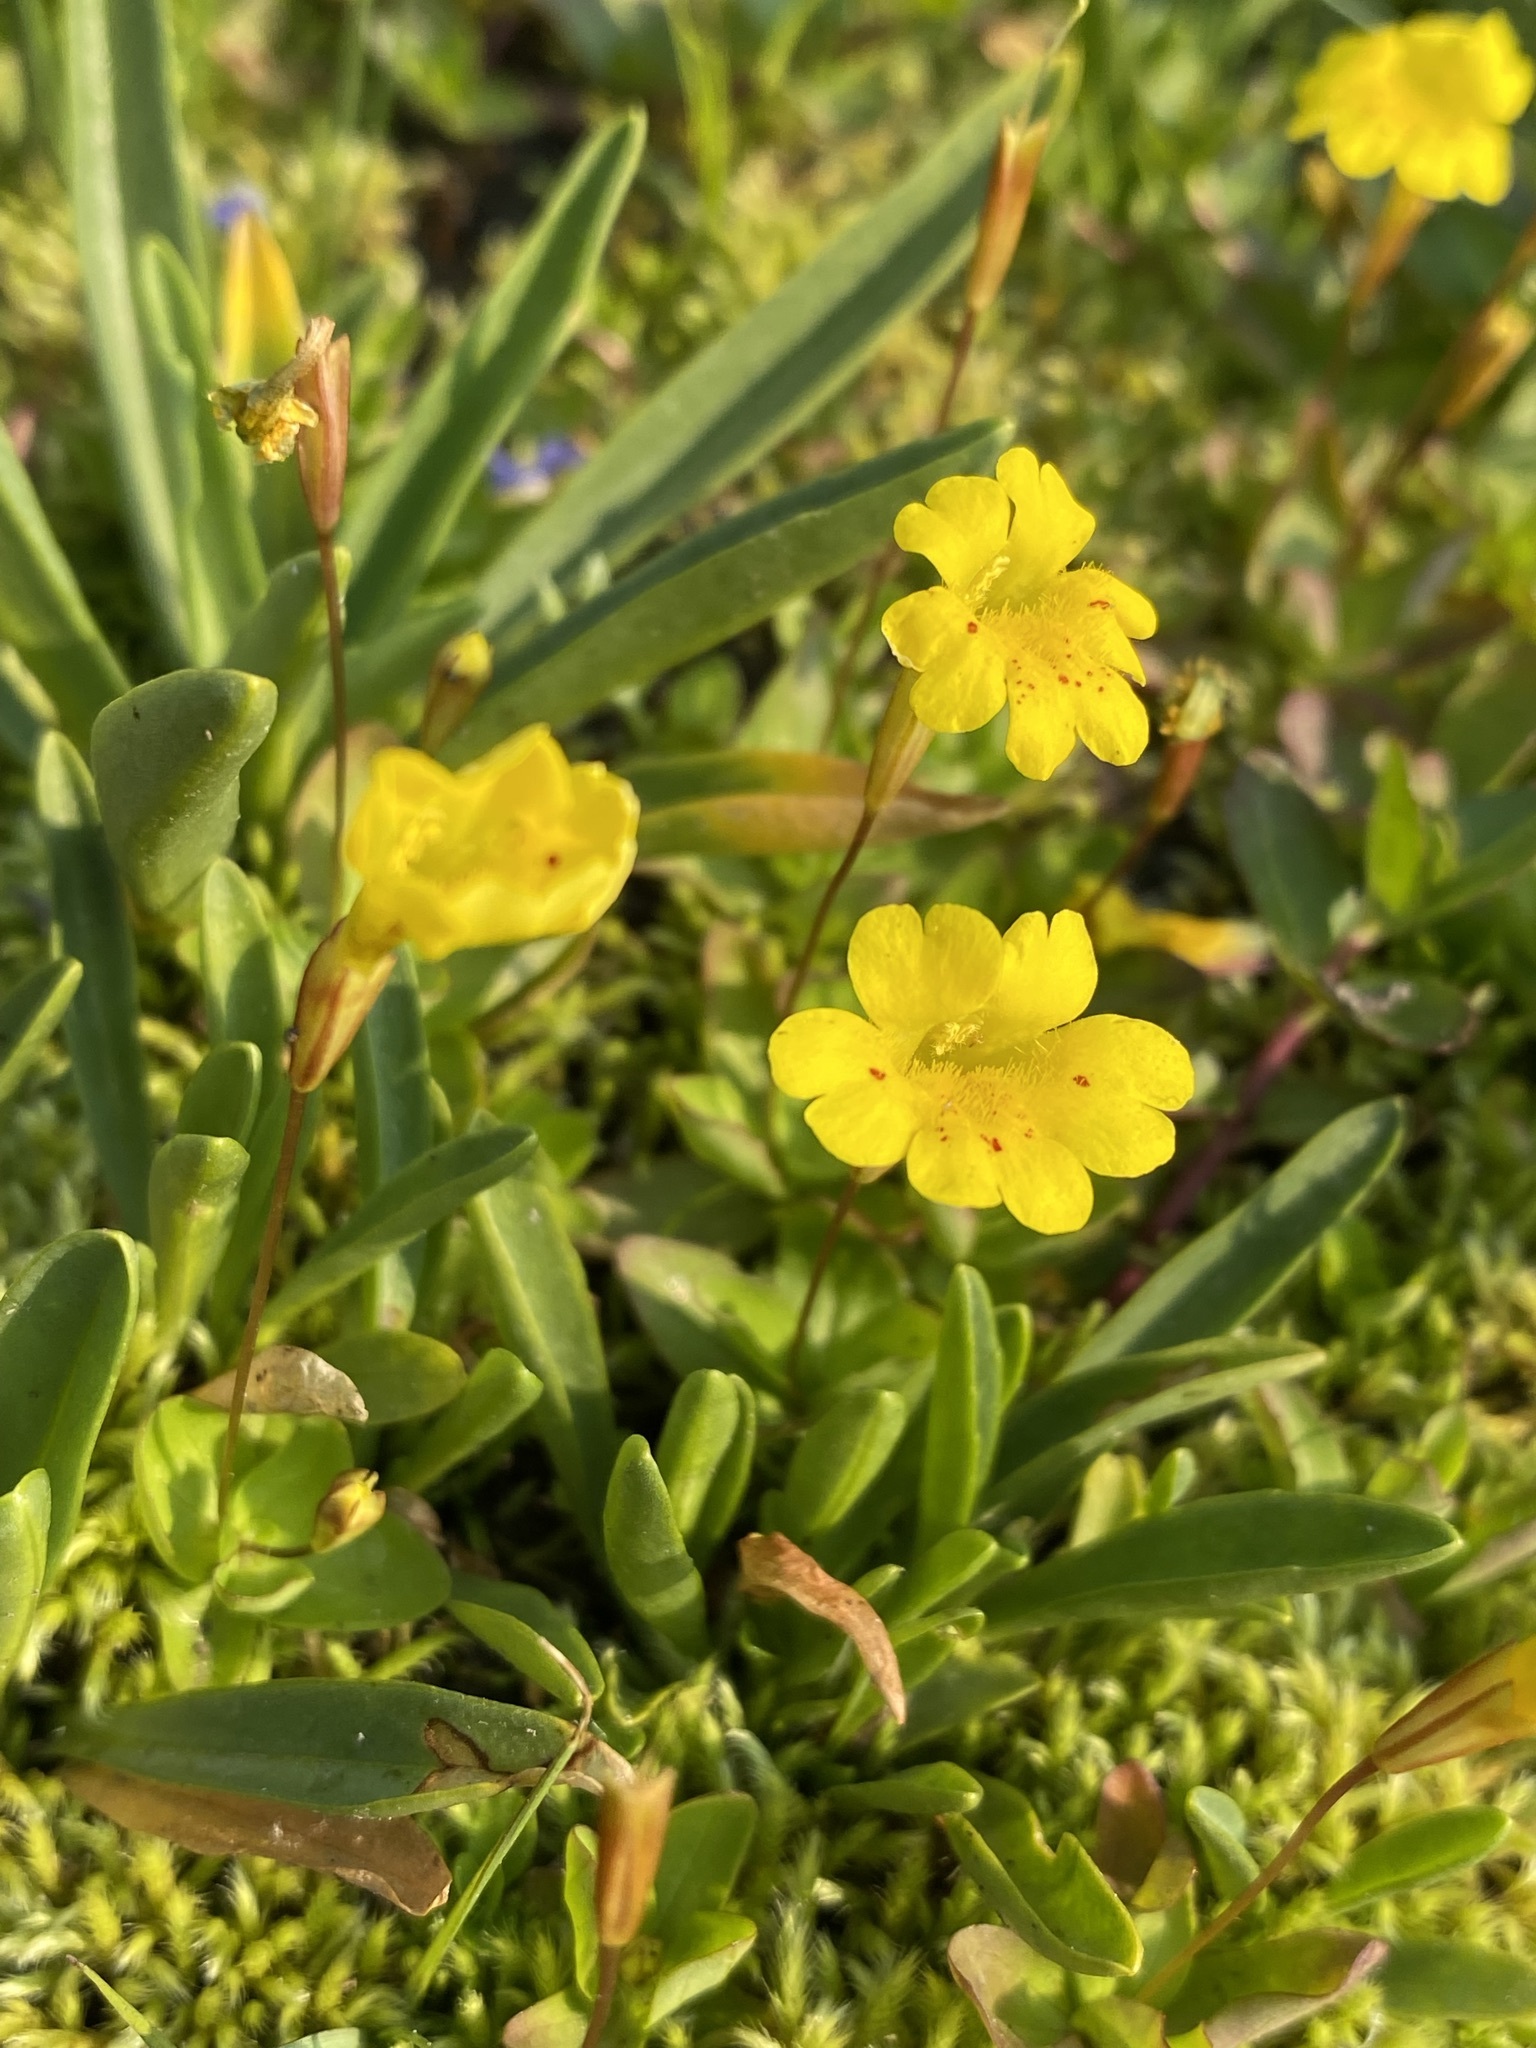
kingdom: Plantae
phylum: Tracheophyta
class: Magnoliopsida
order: Lamiales
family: Phrymaceae
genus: Erythranthe
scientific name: Erythranthe primuloides
